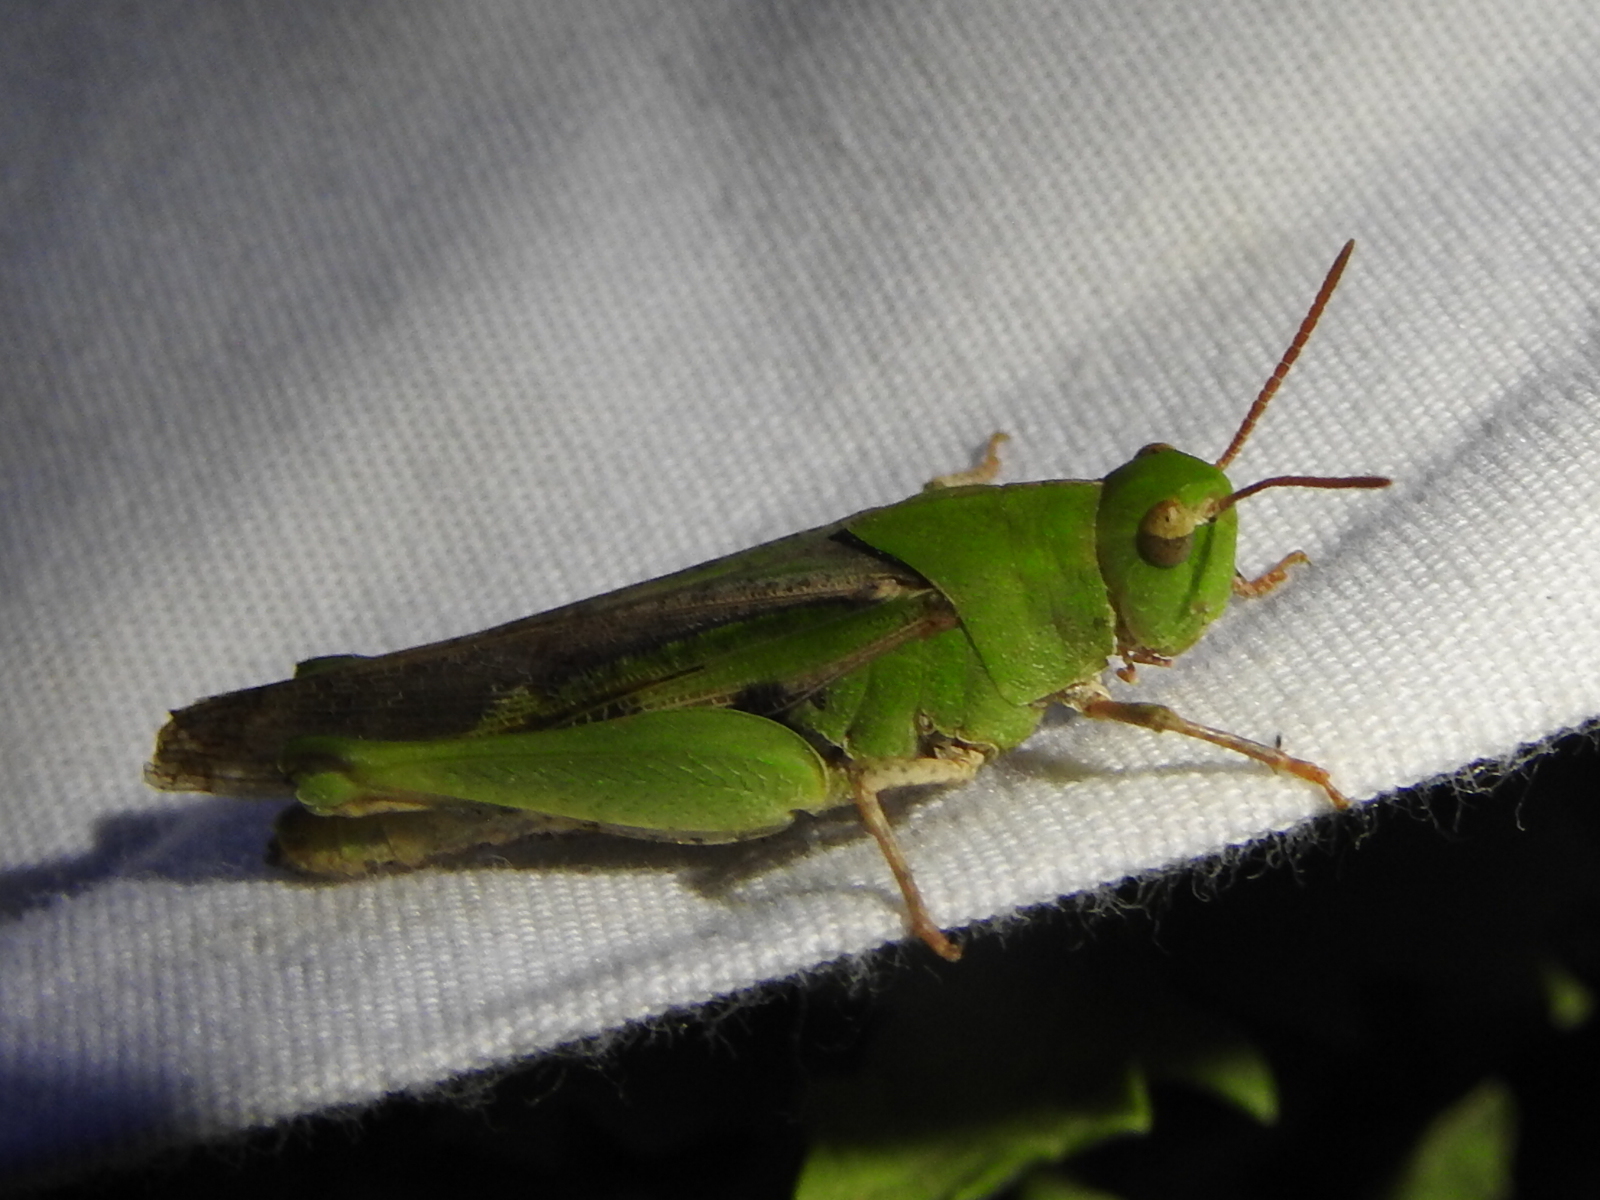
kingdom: Animalia
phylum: Arthropoda
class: Insecta
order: Orthoptera
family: Acrididae
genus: Chortophaga
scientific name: Chortophaga viridifasciata
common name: Green-striped grasshopper
